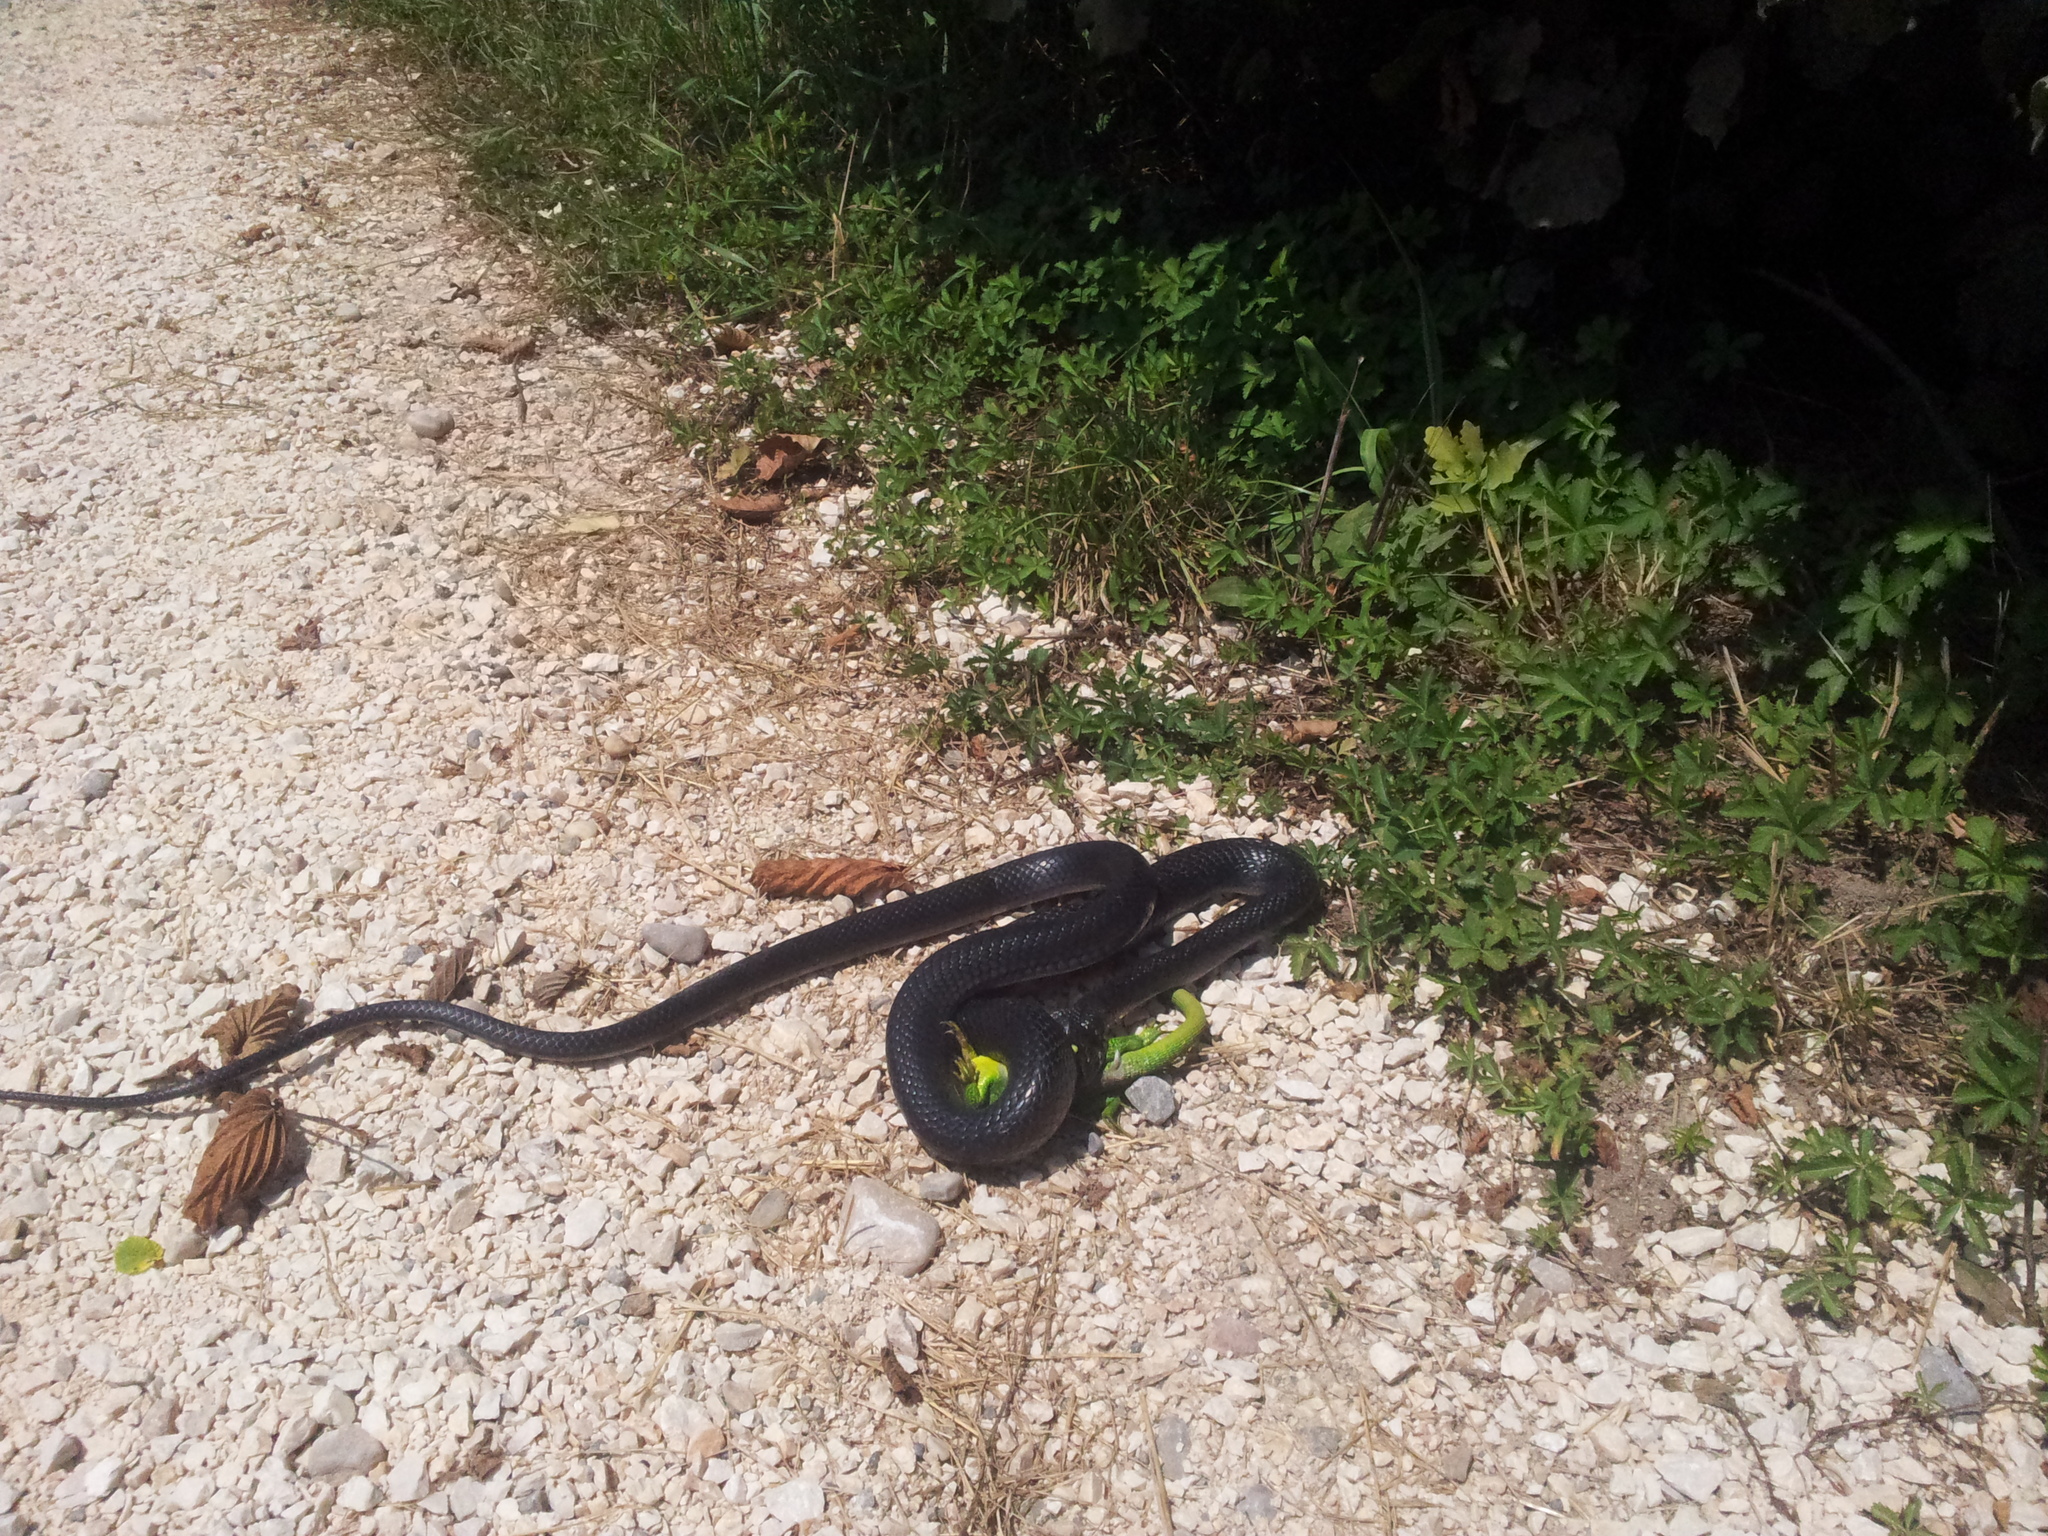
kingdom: Animalia
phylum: Chordata
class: Squamata
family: Colubridae
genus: Hierophis
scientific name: Hierophis viridiflavus
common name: Green whip snake
